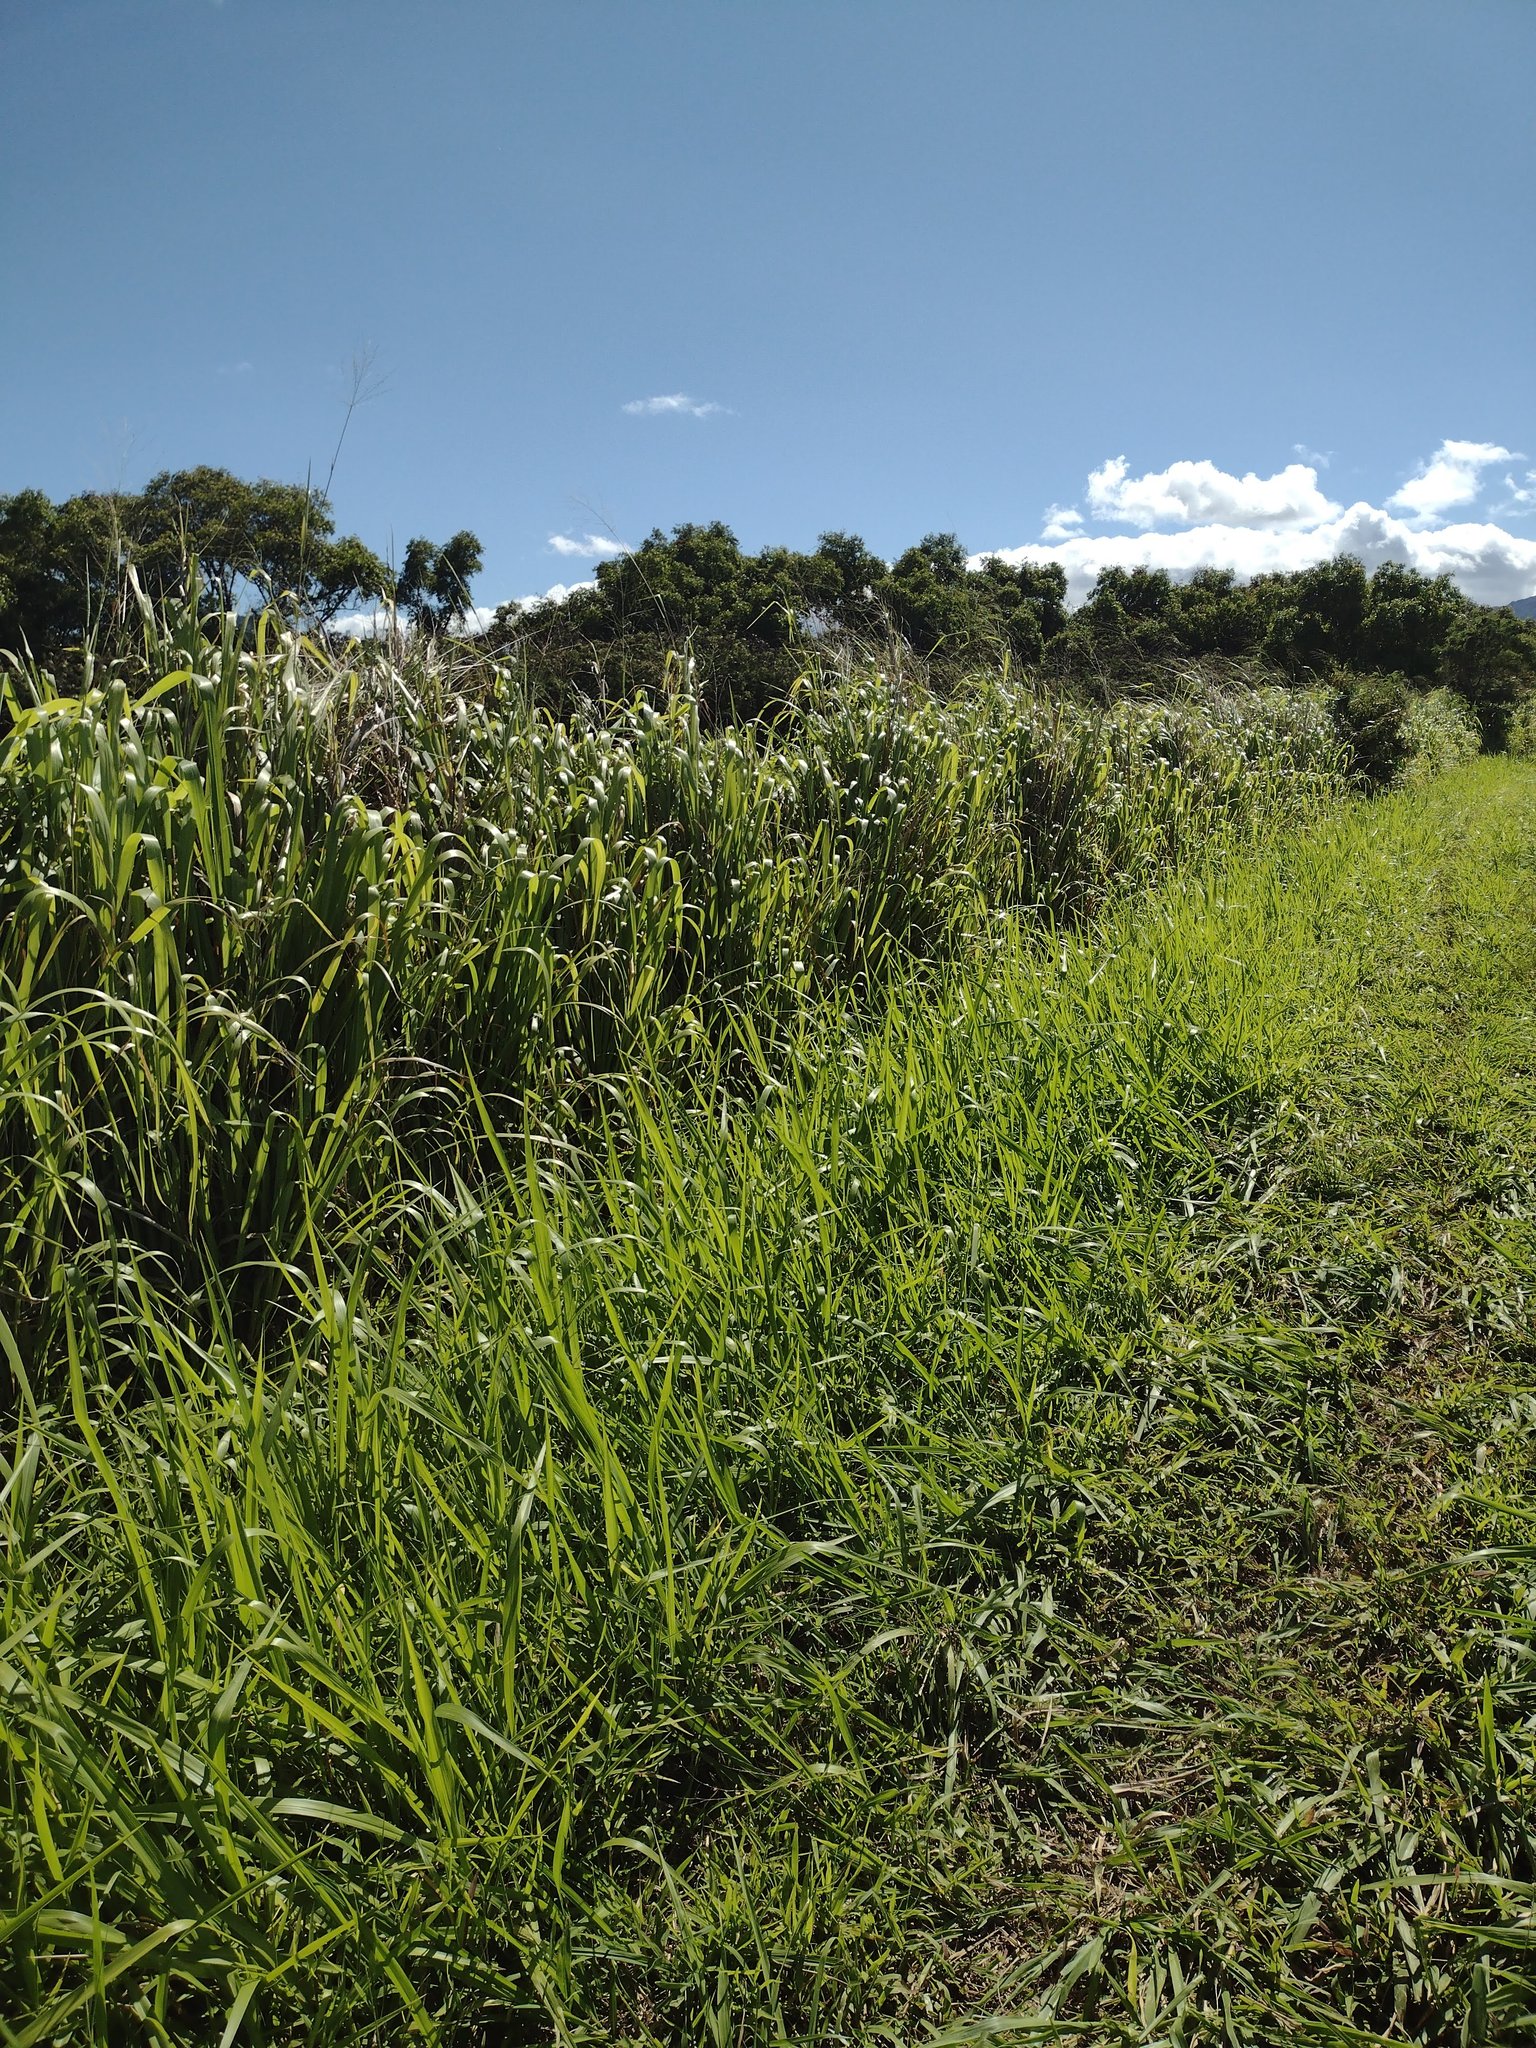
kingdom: Plantae
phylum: Tracheophyta
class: Liliopsida
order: Poales
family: Poaceae
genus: Megathyrsus
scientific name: Megathyrsus maximus
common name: Guineagrass
